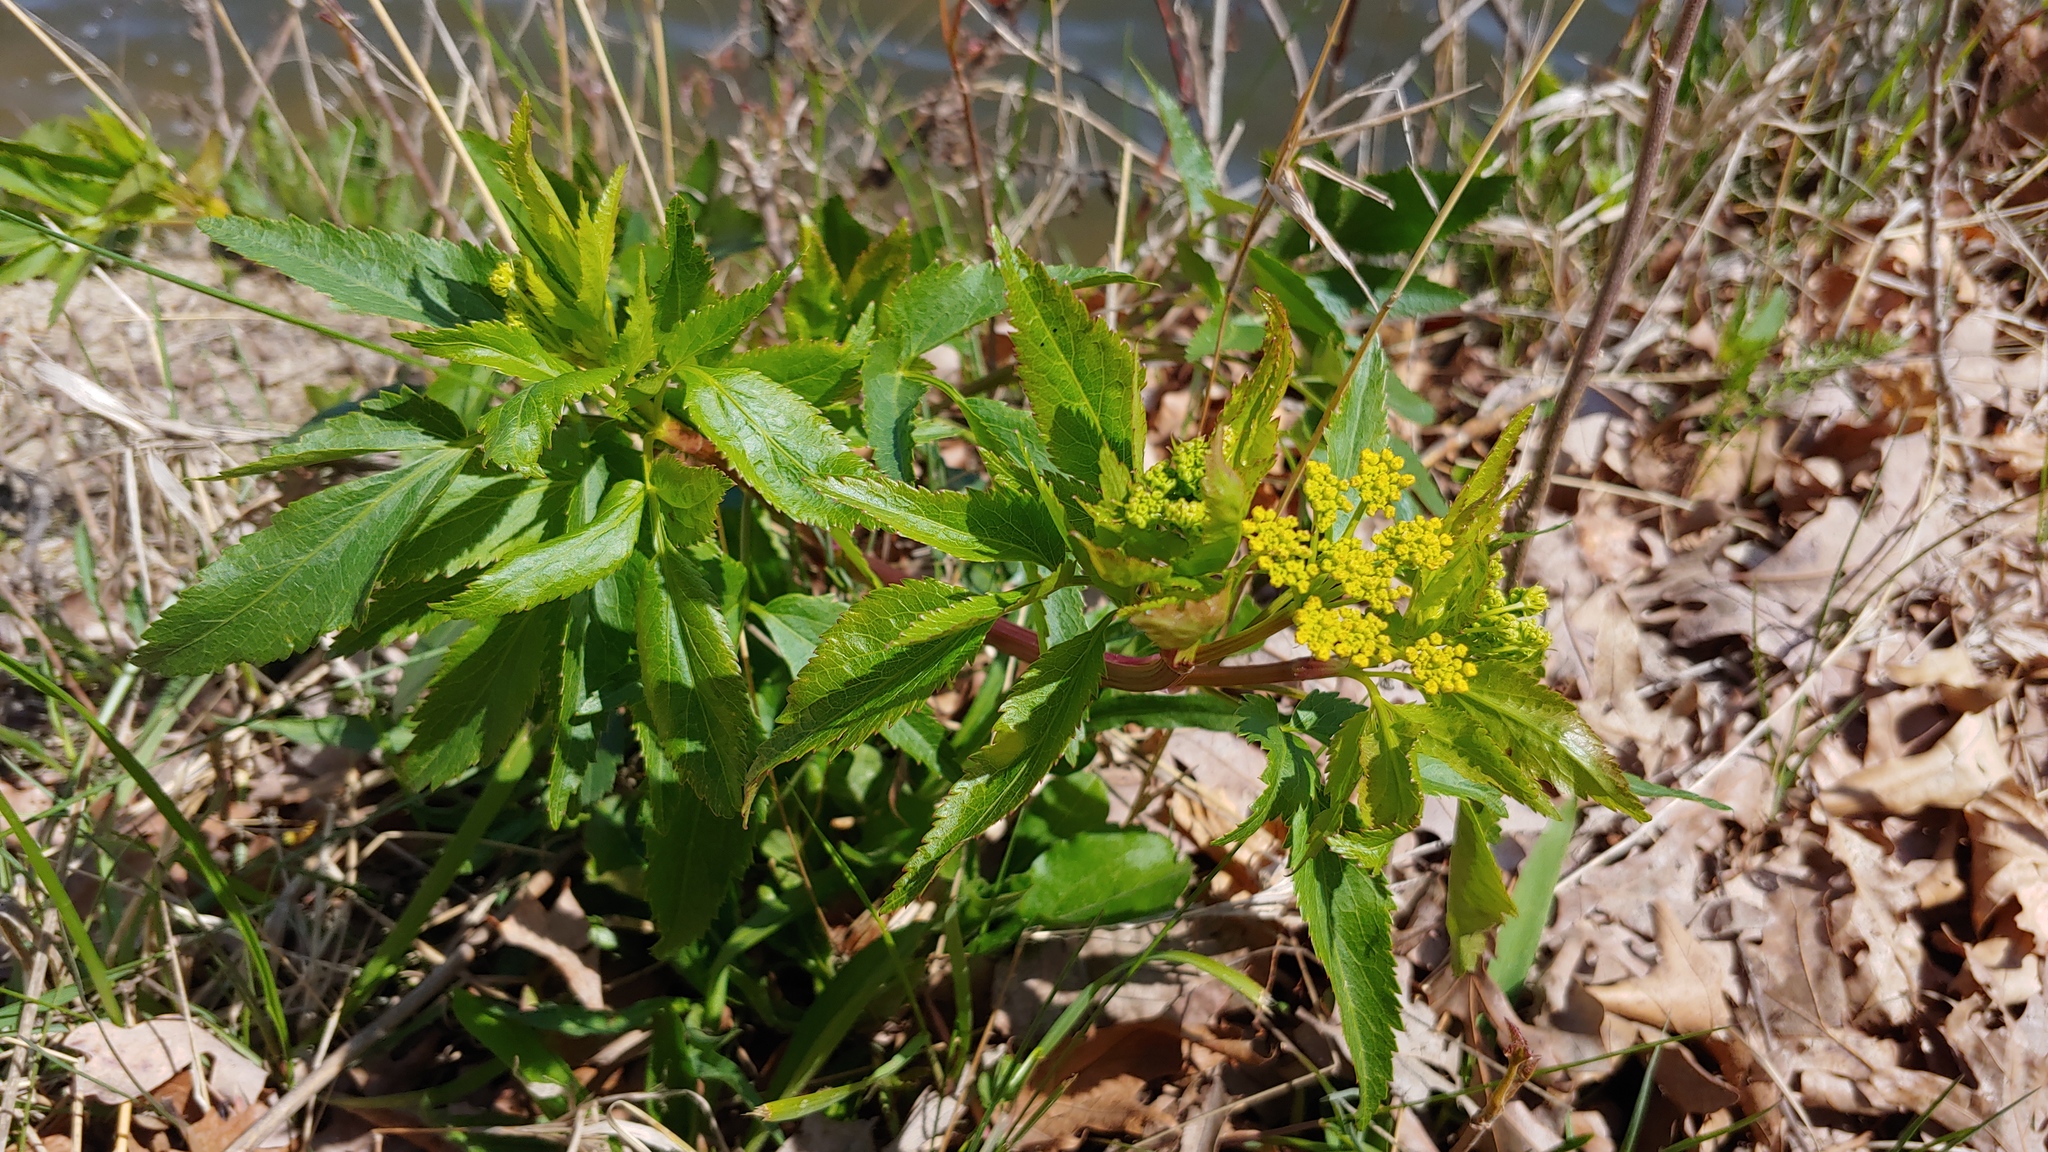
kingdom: Plantae
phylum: Tracheophyta
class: Magnoliopsida
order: Apiales
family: Apiaceae
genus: Zizia
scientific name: Zizia aurea
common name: Golden alexanders
